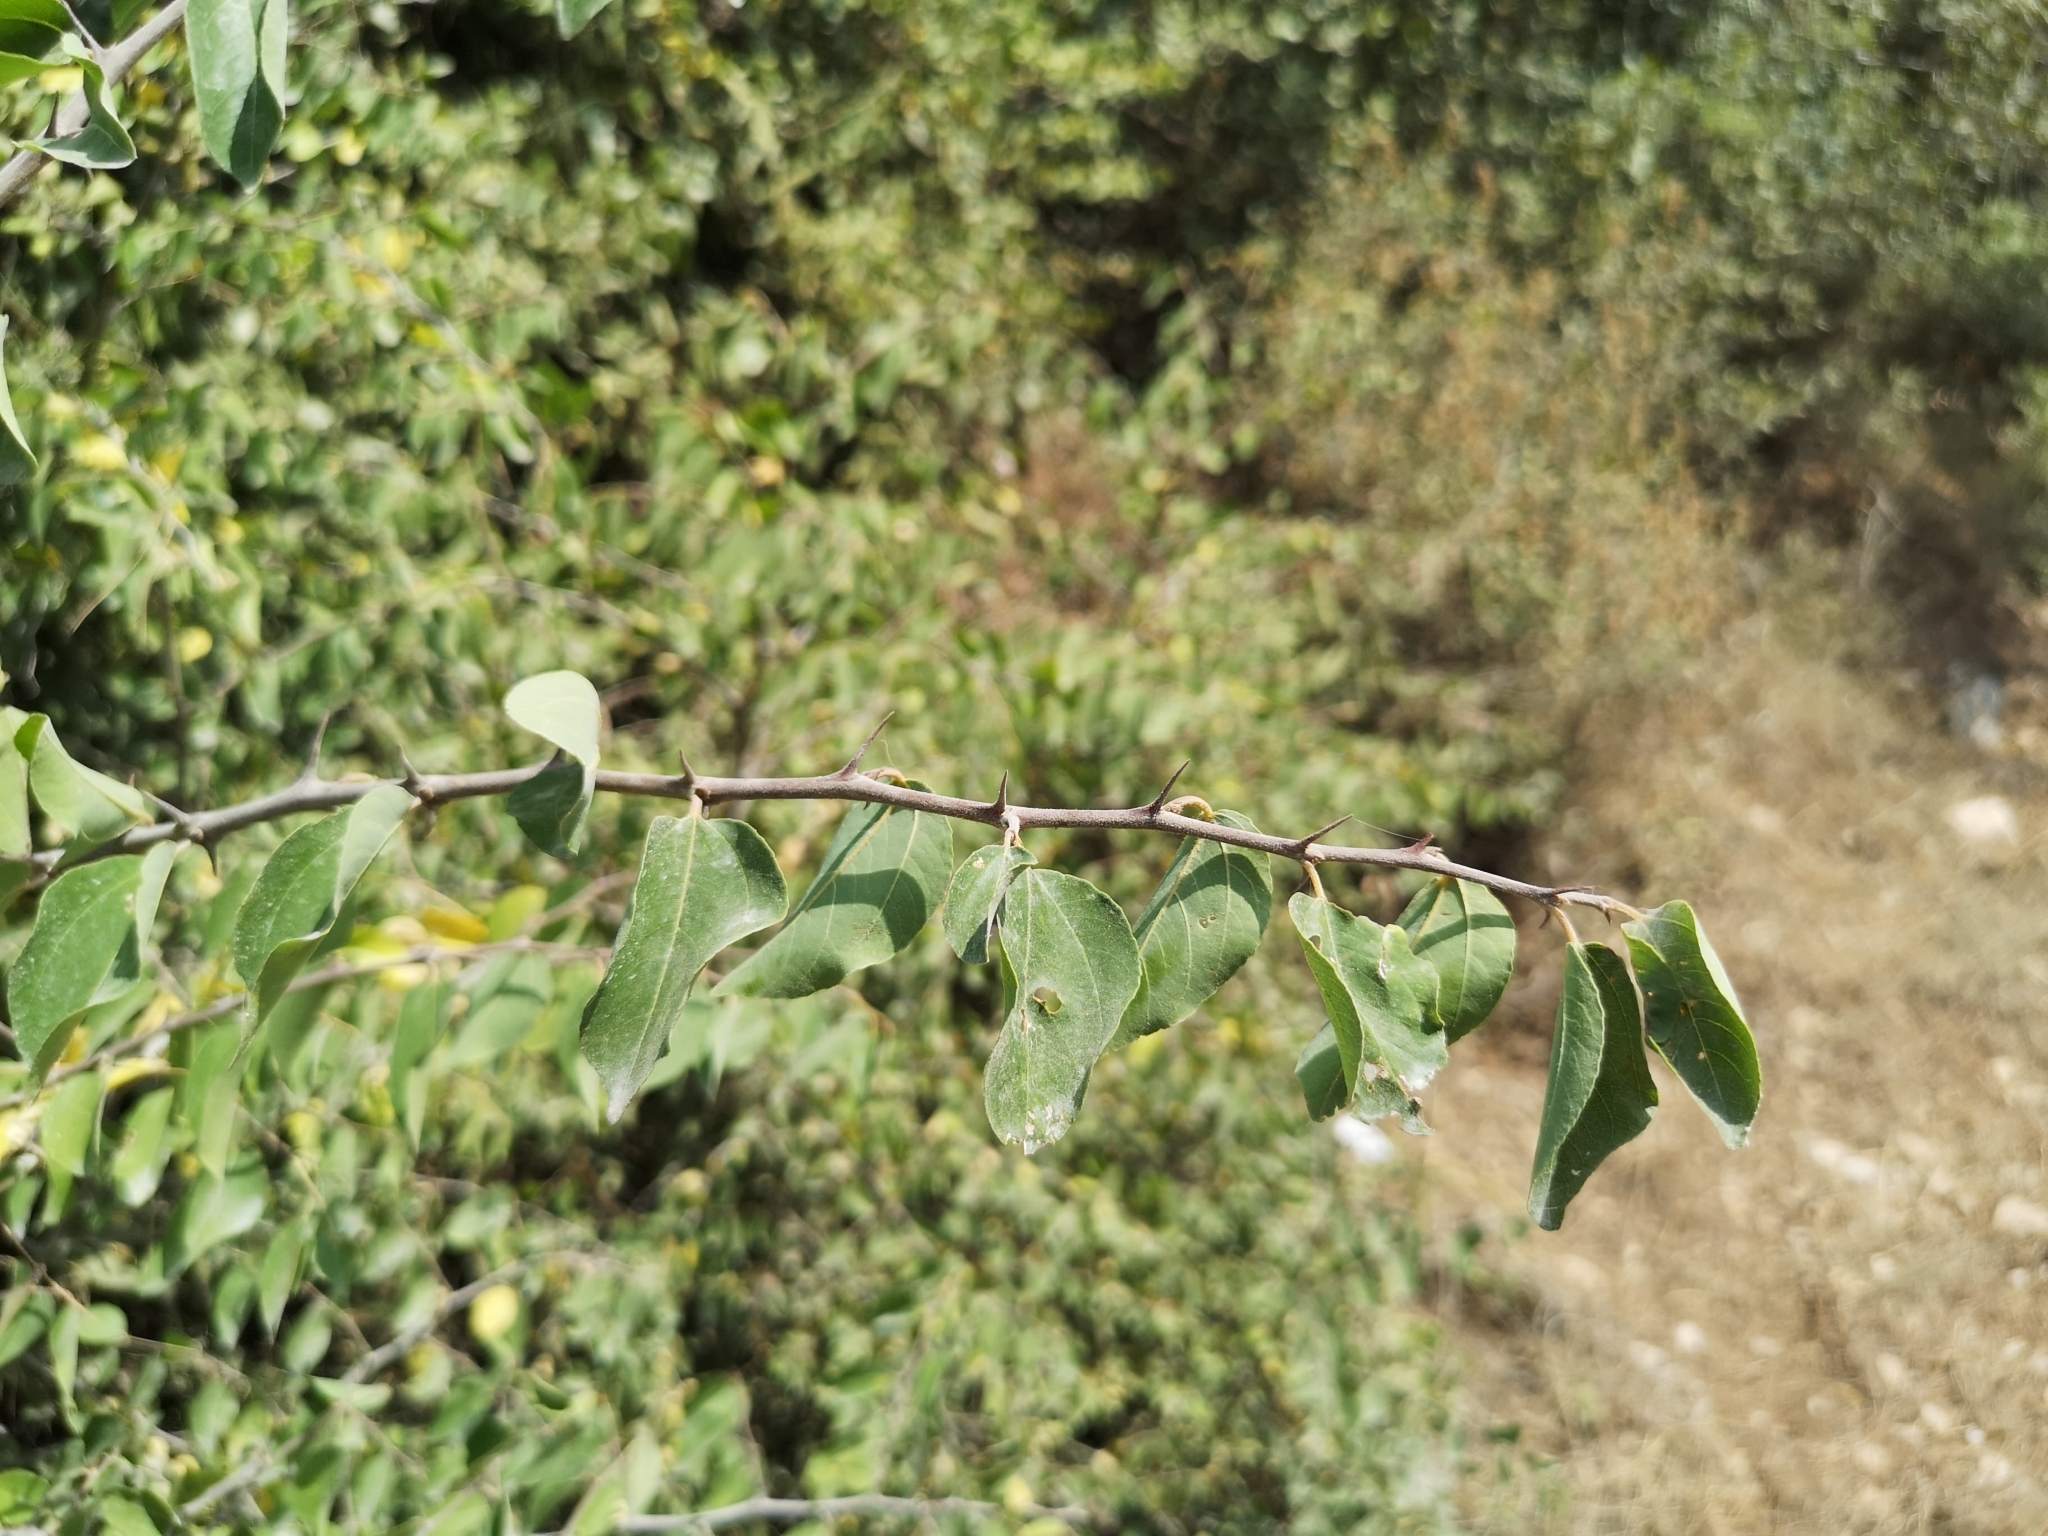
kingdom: Plantae
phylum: Tracheophyta
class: Magnoliopsida
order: Rosales
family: Rhamnaceae
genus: Paliurus
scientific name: Paliurus spina-christi
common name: Jeruselem thorn
